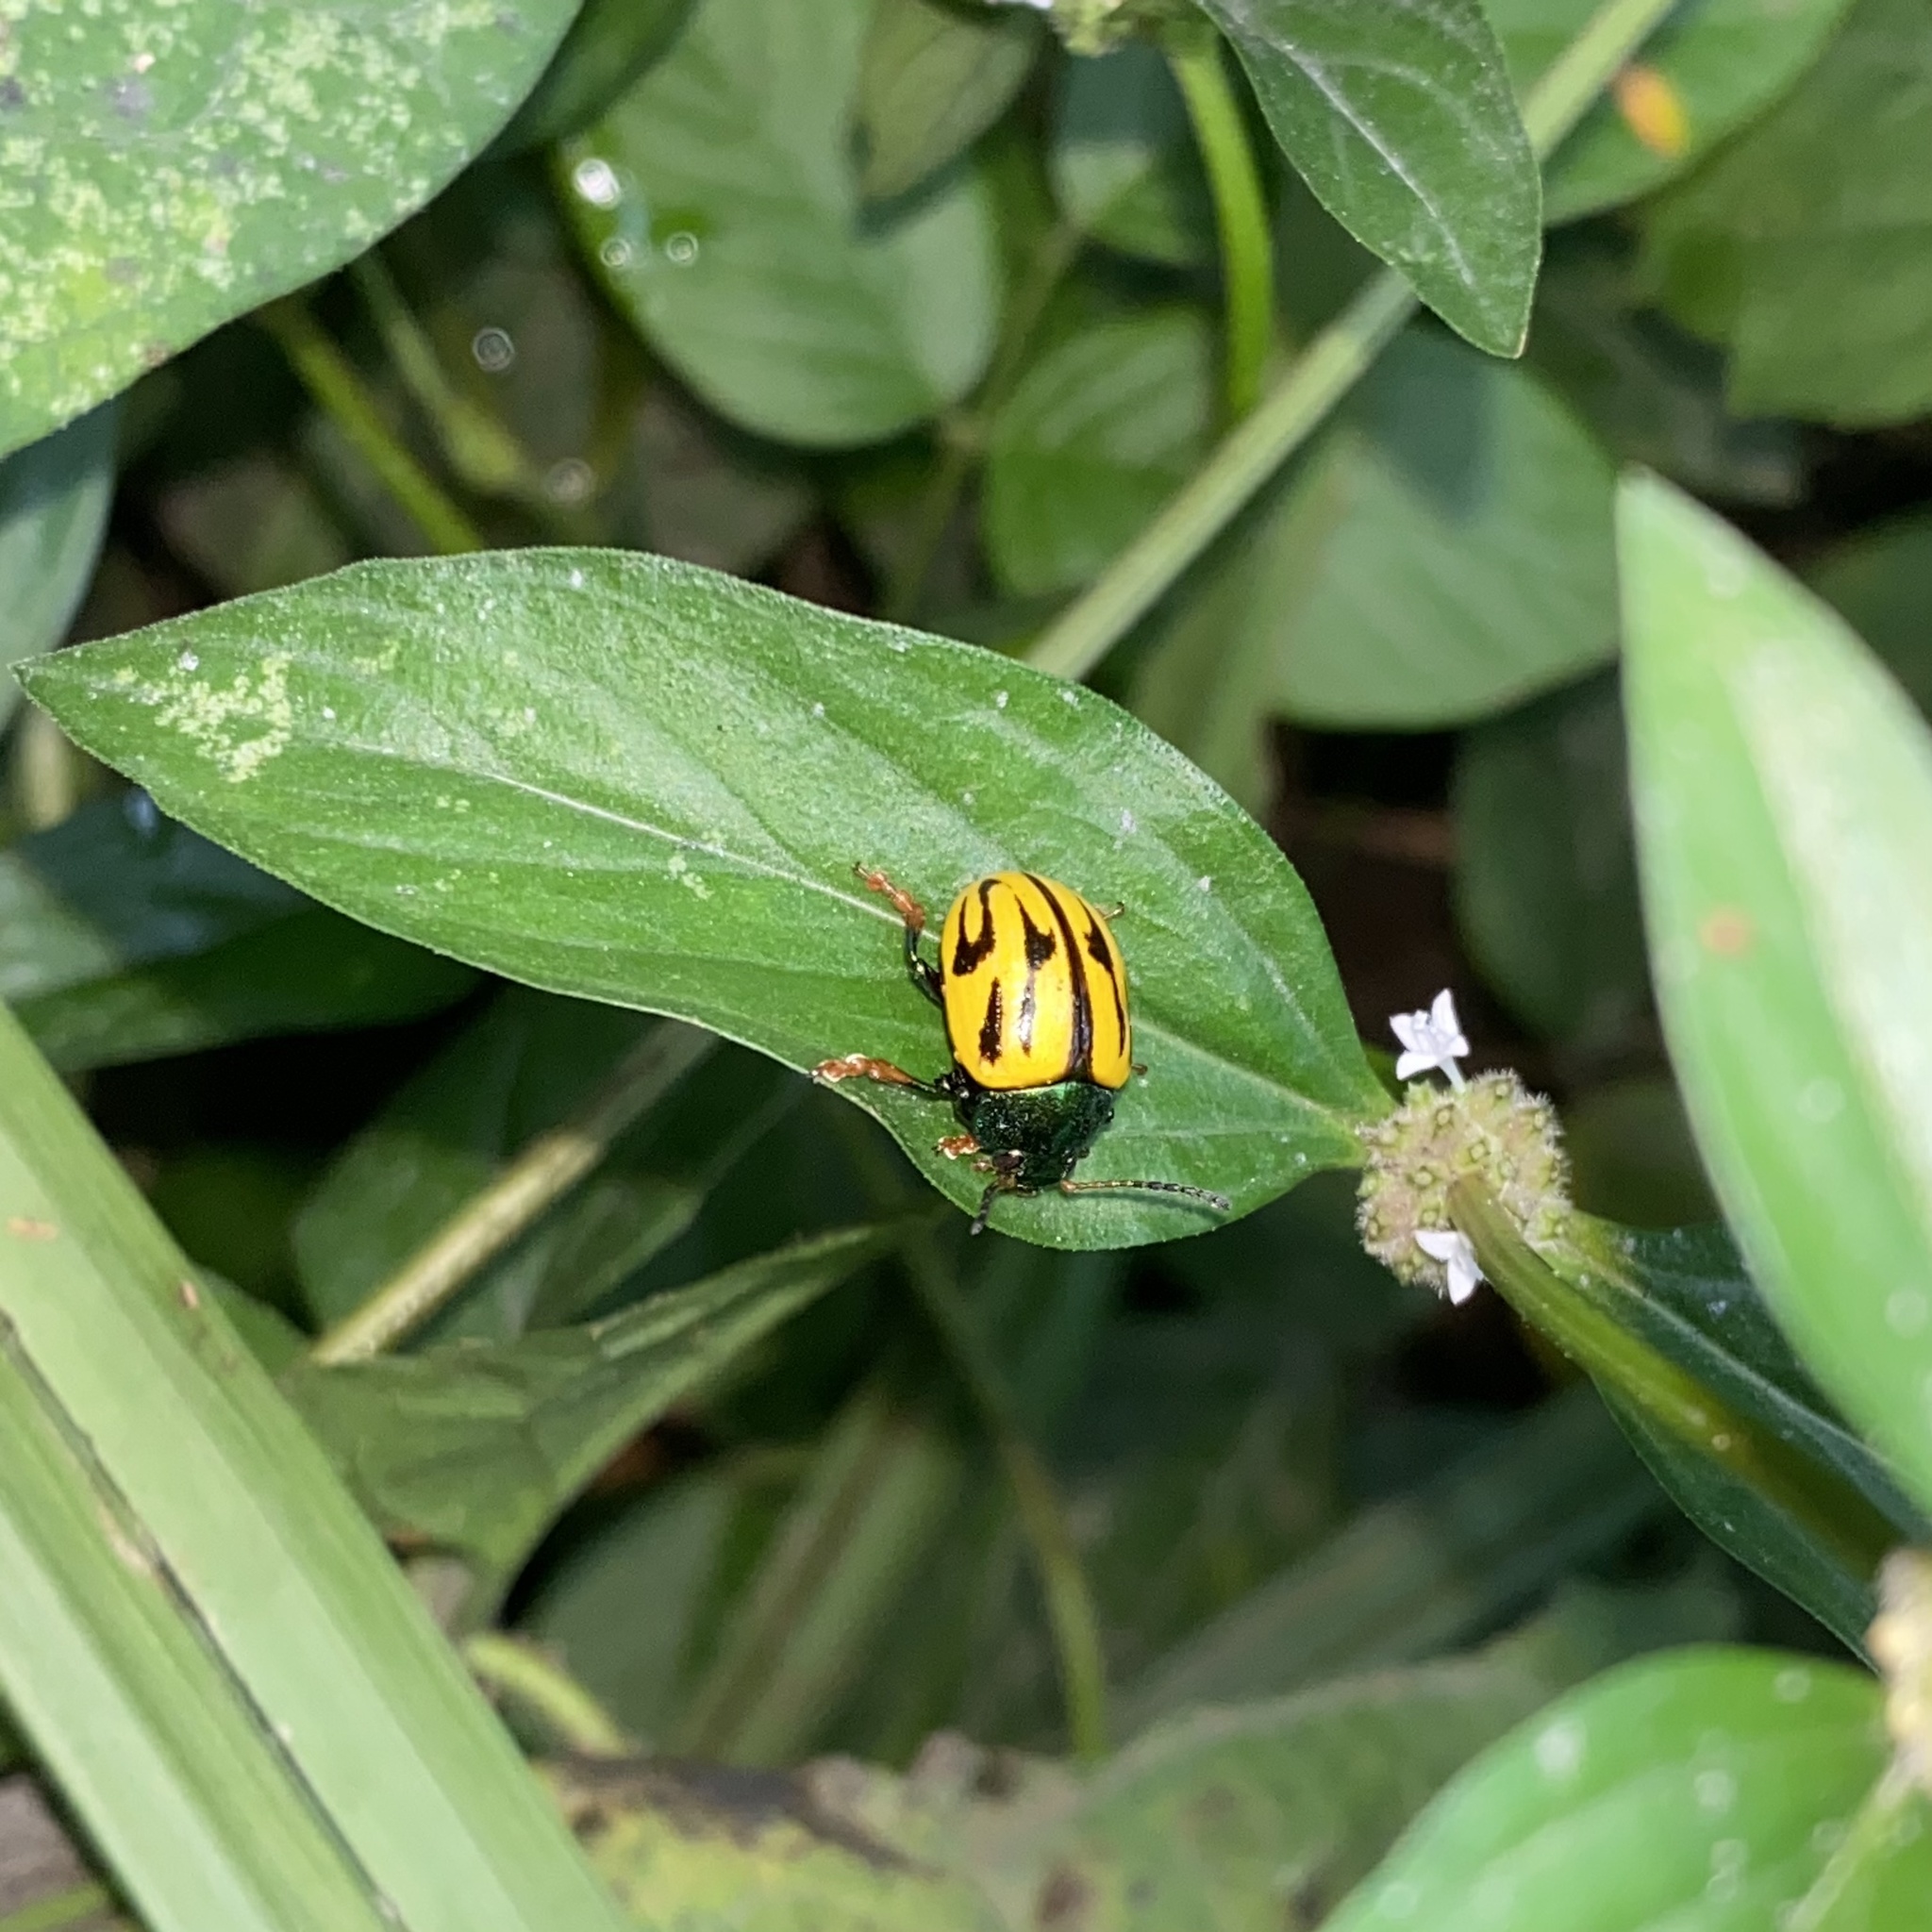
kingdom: Animalia
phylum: Arthropoda
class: Insecta
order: Coleoptera
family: Chrysomelidae
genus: Leptinotarsa
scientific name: Leptinotarsa
